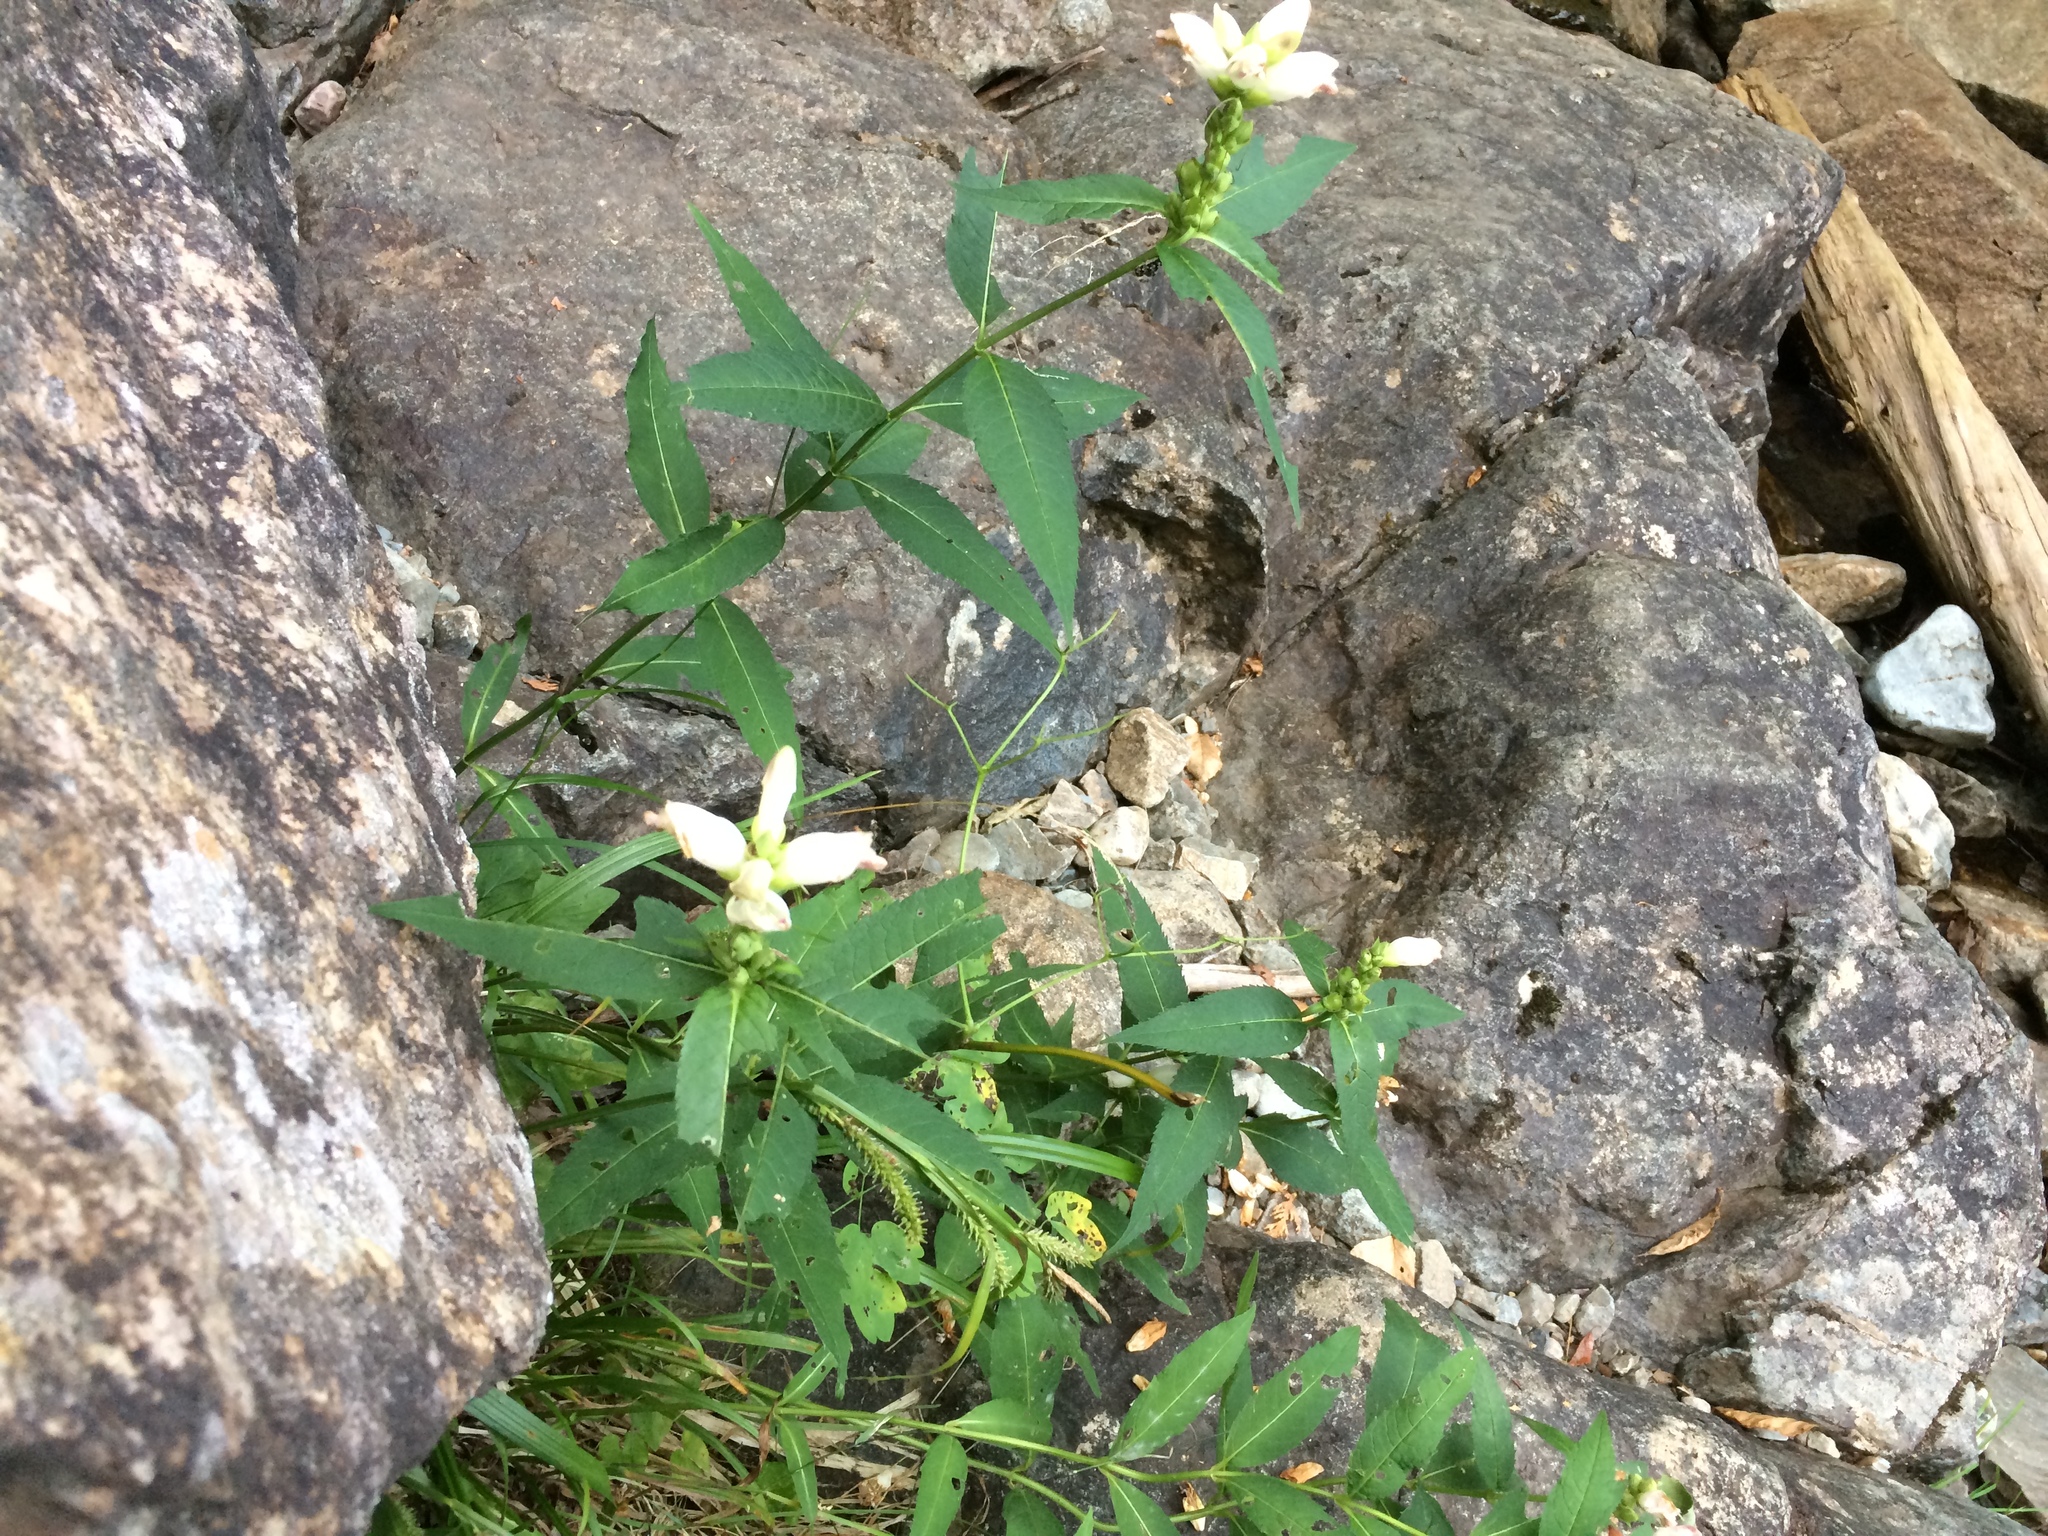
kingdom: Plantae
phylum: Tracheophyta
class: Magnoliopsida
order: Lamiales
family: Plantaginaceae
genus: Chelone
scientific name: Chelone glabra
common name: Snakehead
